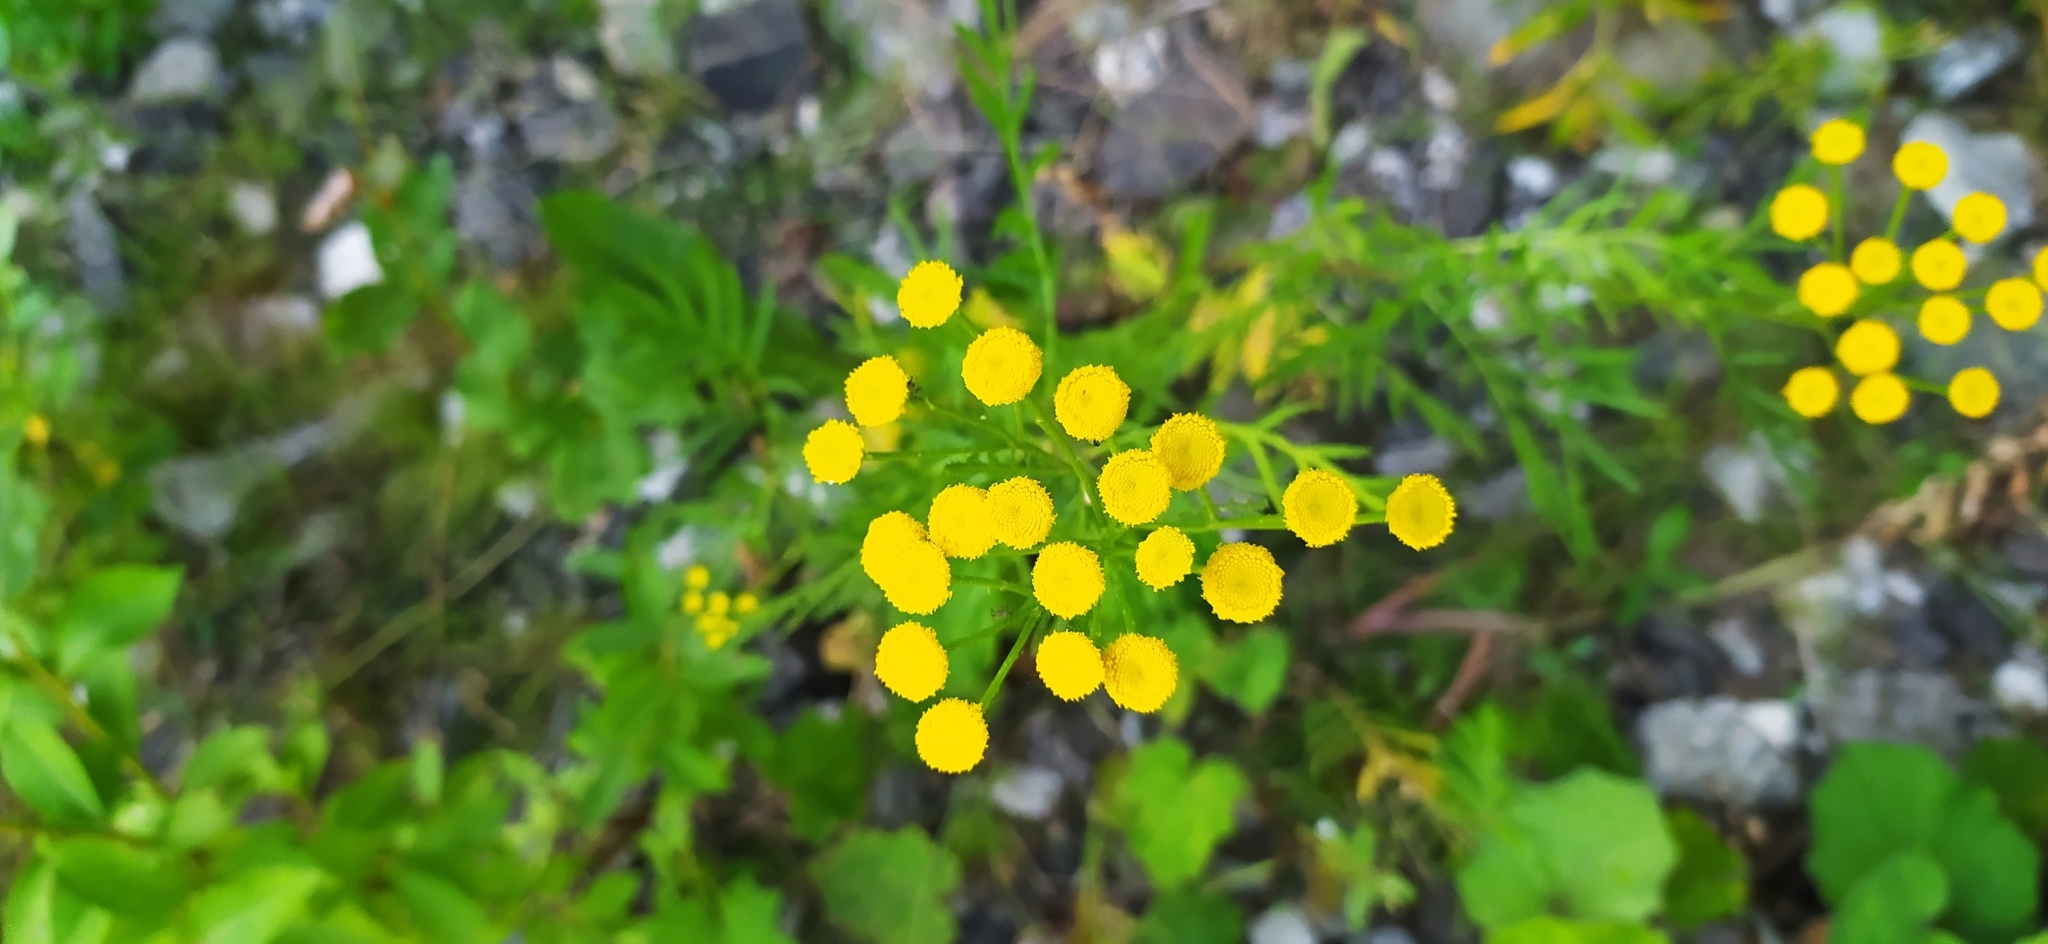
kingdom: Plantae
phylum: Tracheophyta
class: Magnoliopsida
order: Asterales
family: Asteraceae
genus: Tanacetum
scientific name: Tanacetum vulgare
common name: Common tansy
